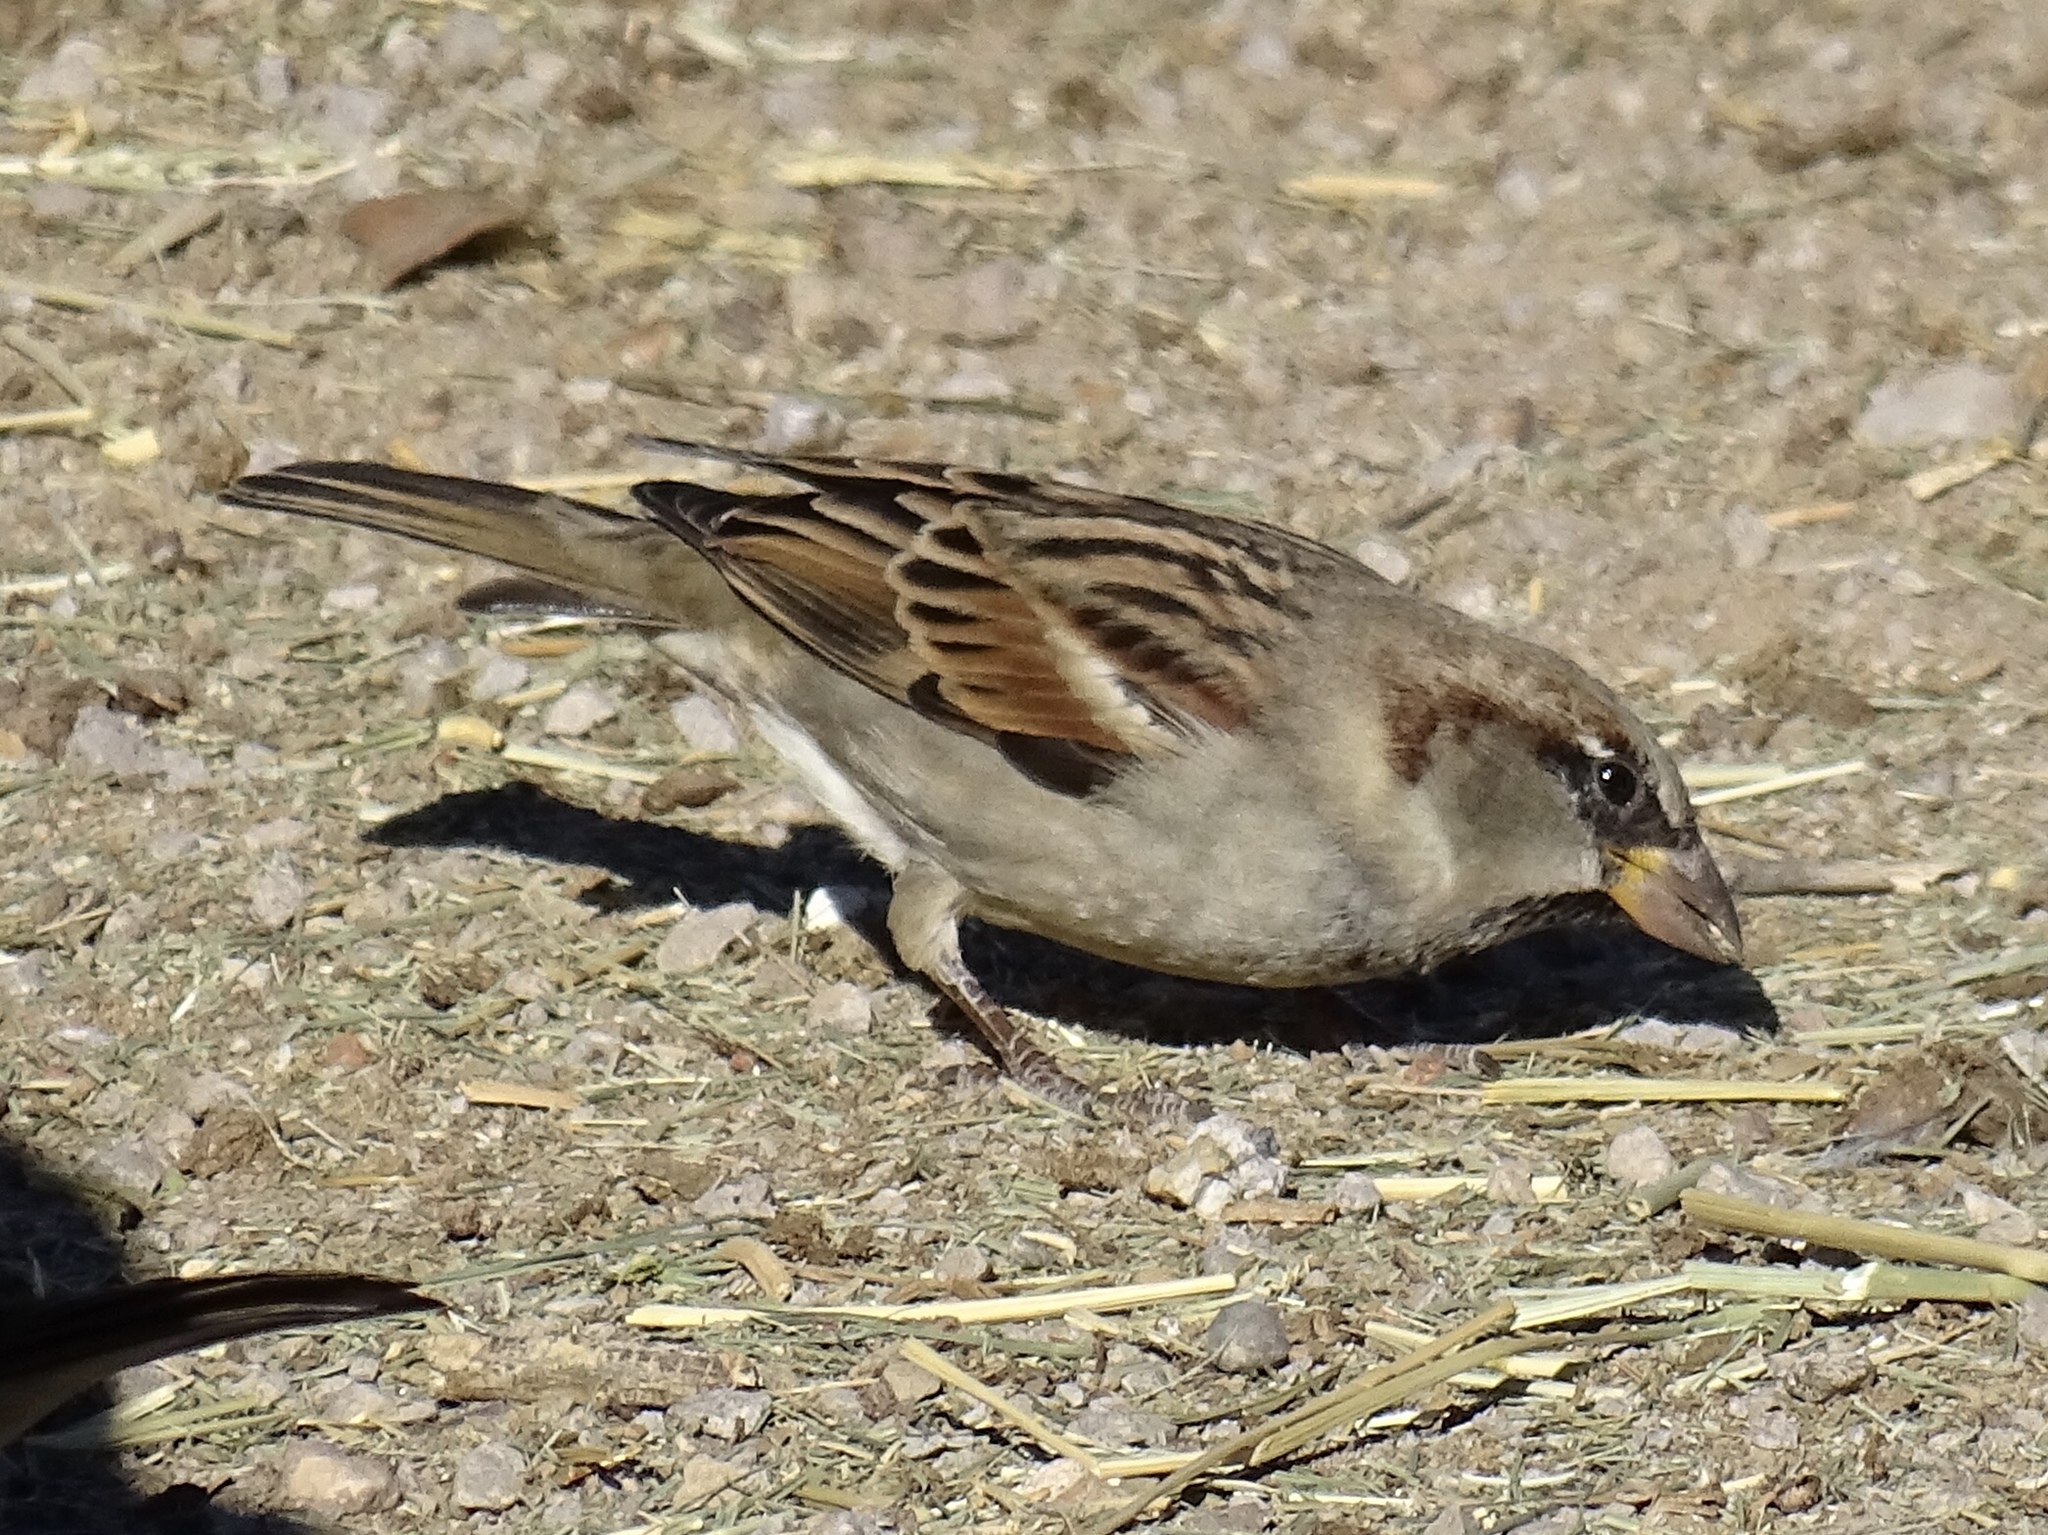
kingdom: Animalia
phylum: Chordata
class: Aves
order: Passeriformes
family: Passeridae
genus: Passer
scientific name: Passer domesticus
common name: House sparrow
